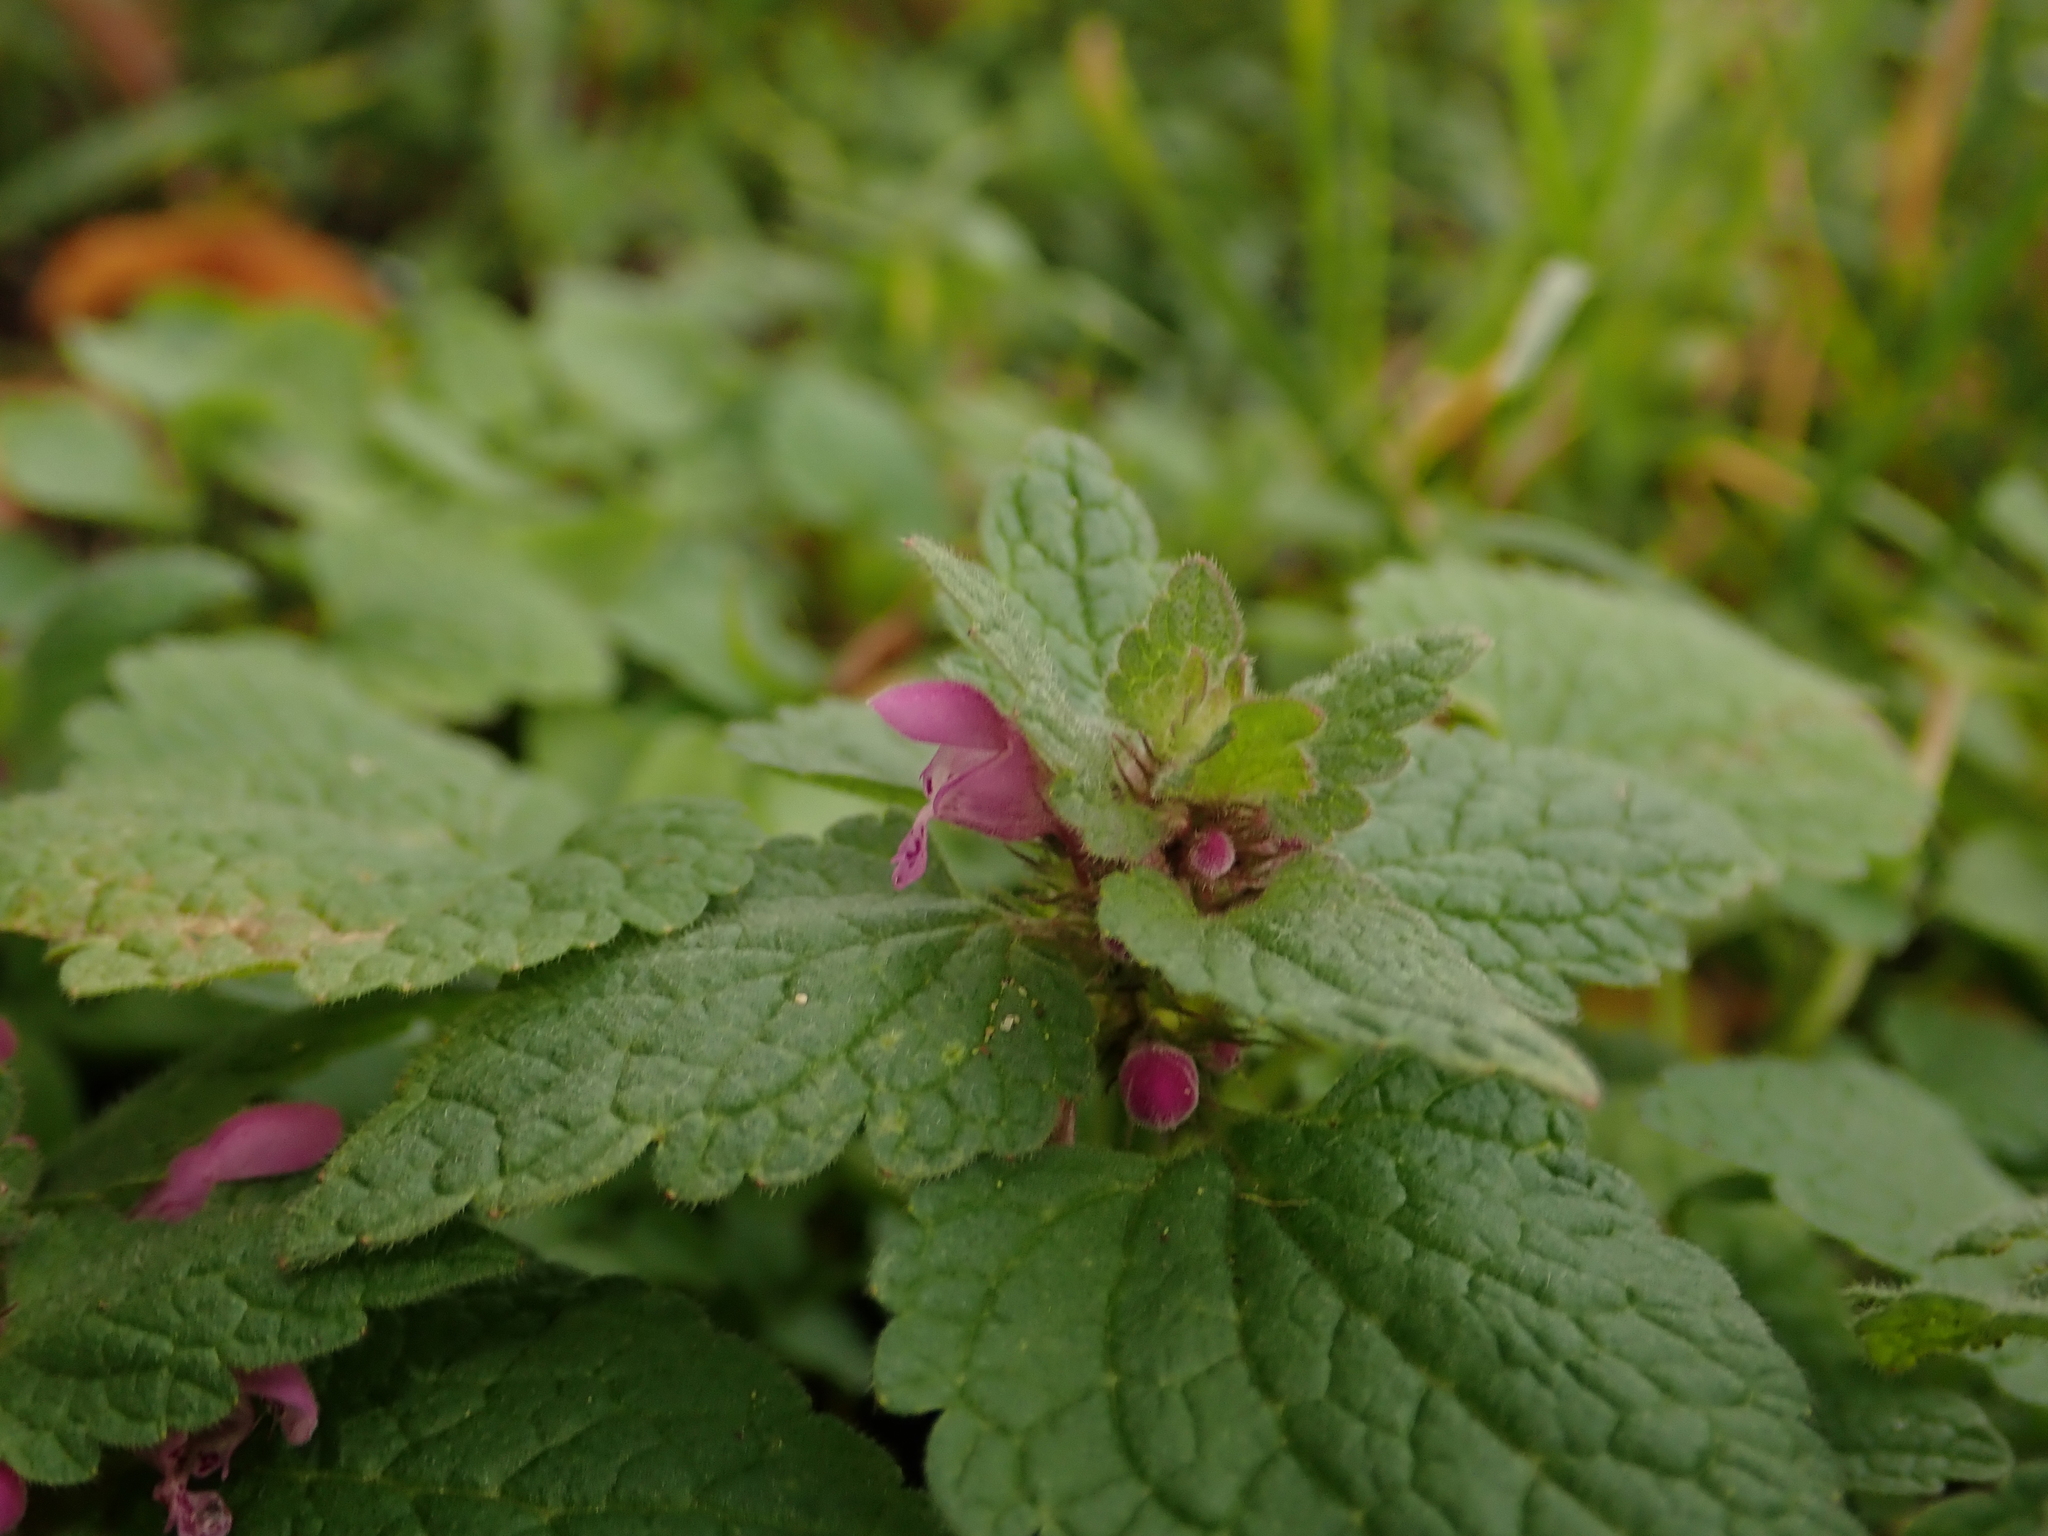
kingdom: Plantae
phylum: Tracheophyta
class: Magnoliopsida
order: Lamiales
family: Lamiaceae
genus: Lamium
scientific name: Lamium purpureum
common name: Red dead-nettle
